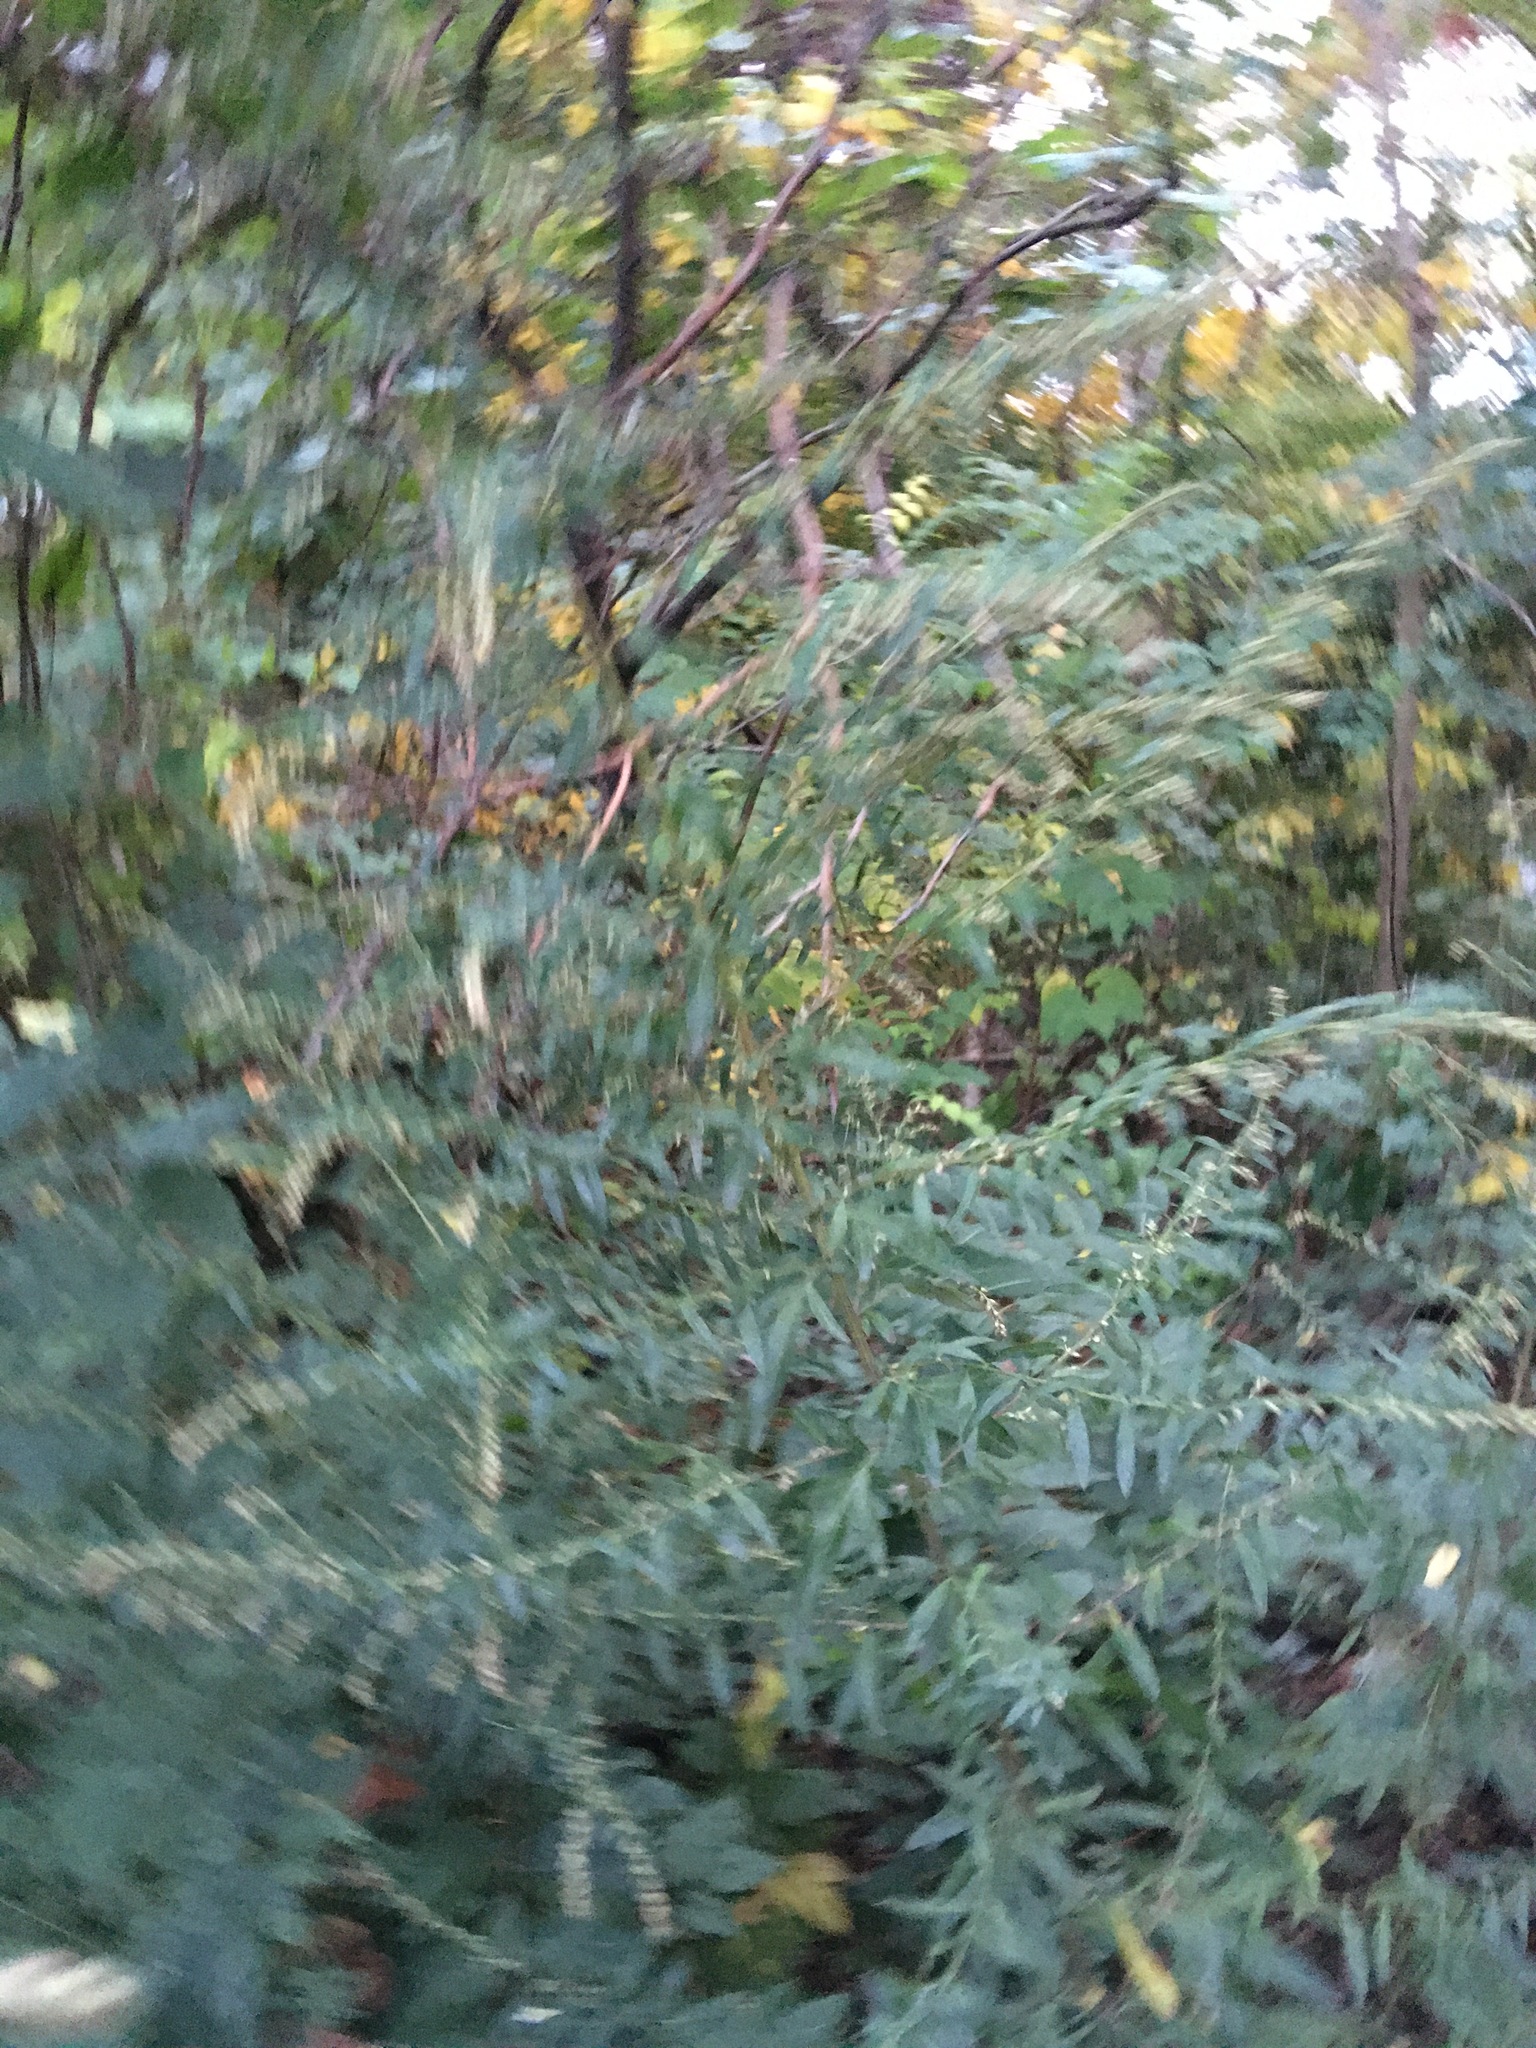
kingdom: Plantae
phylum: Tracheophyta
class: Magnoliopsida
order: Asterales
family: Asteraceae
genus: Artemisia
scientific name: Artemisia vulgaris
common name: Mugwort
